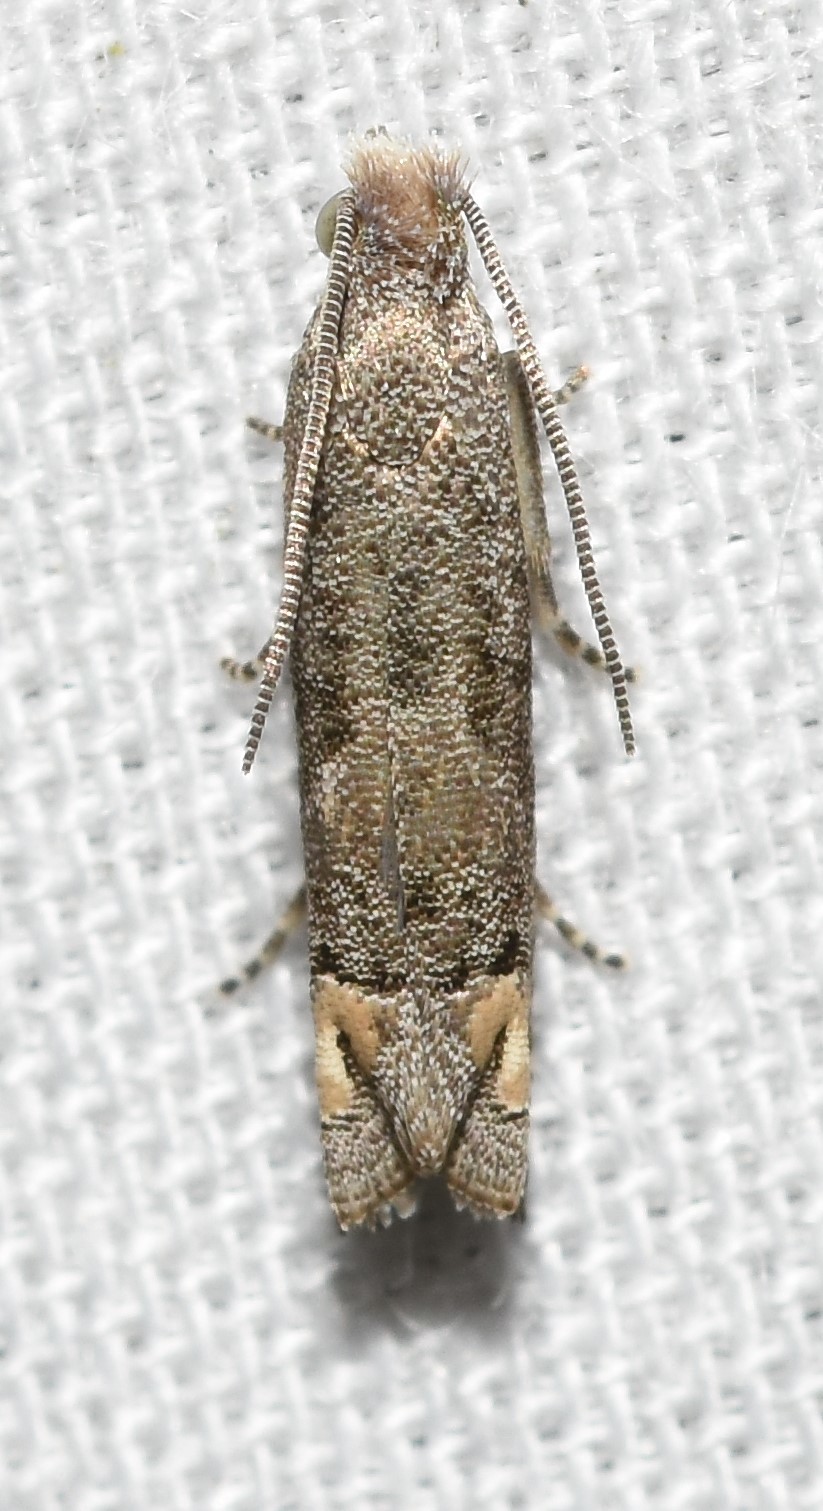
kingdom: Animalia
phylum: Arthropoda
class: Insecta
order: Lepidoptera
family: Tortricidae
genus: Epiblema
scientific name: Epiblema strenuana
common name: Ragweed borer moth
